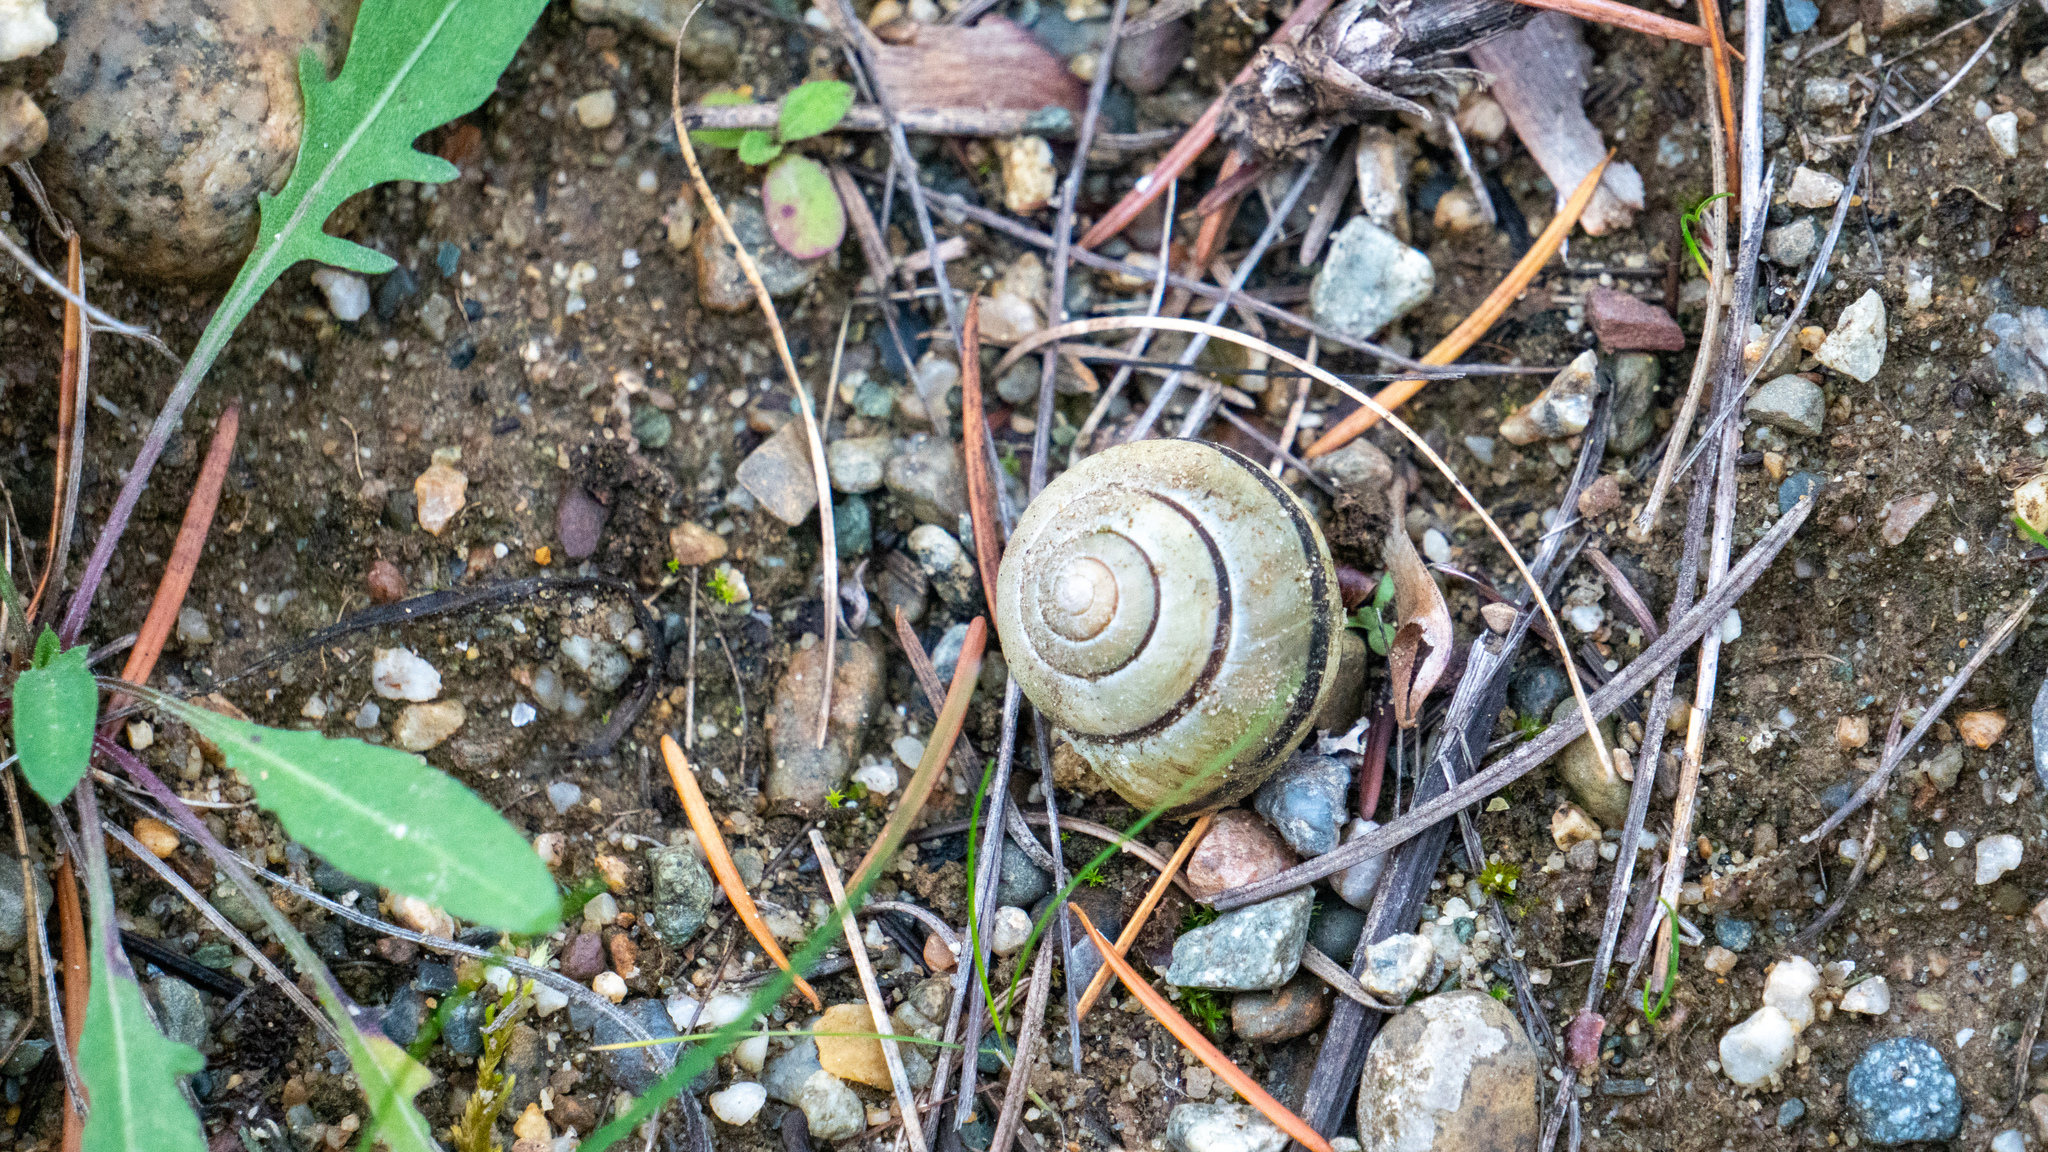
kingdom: Animalia
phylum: Mollusca
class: Gastropoda
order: Stylommatophora
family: Helicidae
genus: Cepaea
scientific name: Cepaea nemoralis
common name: Grovesnail
